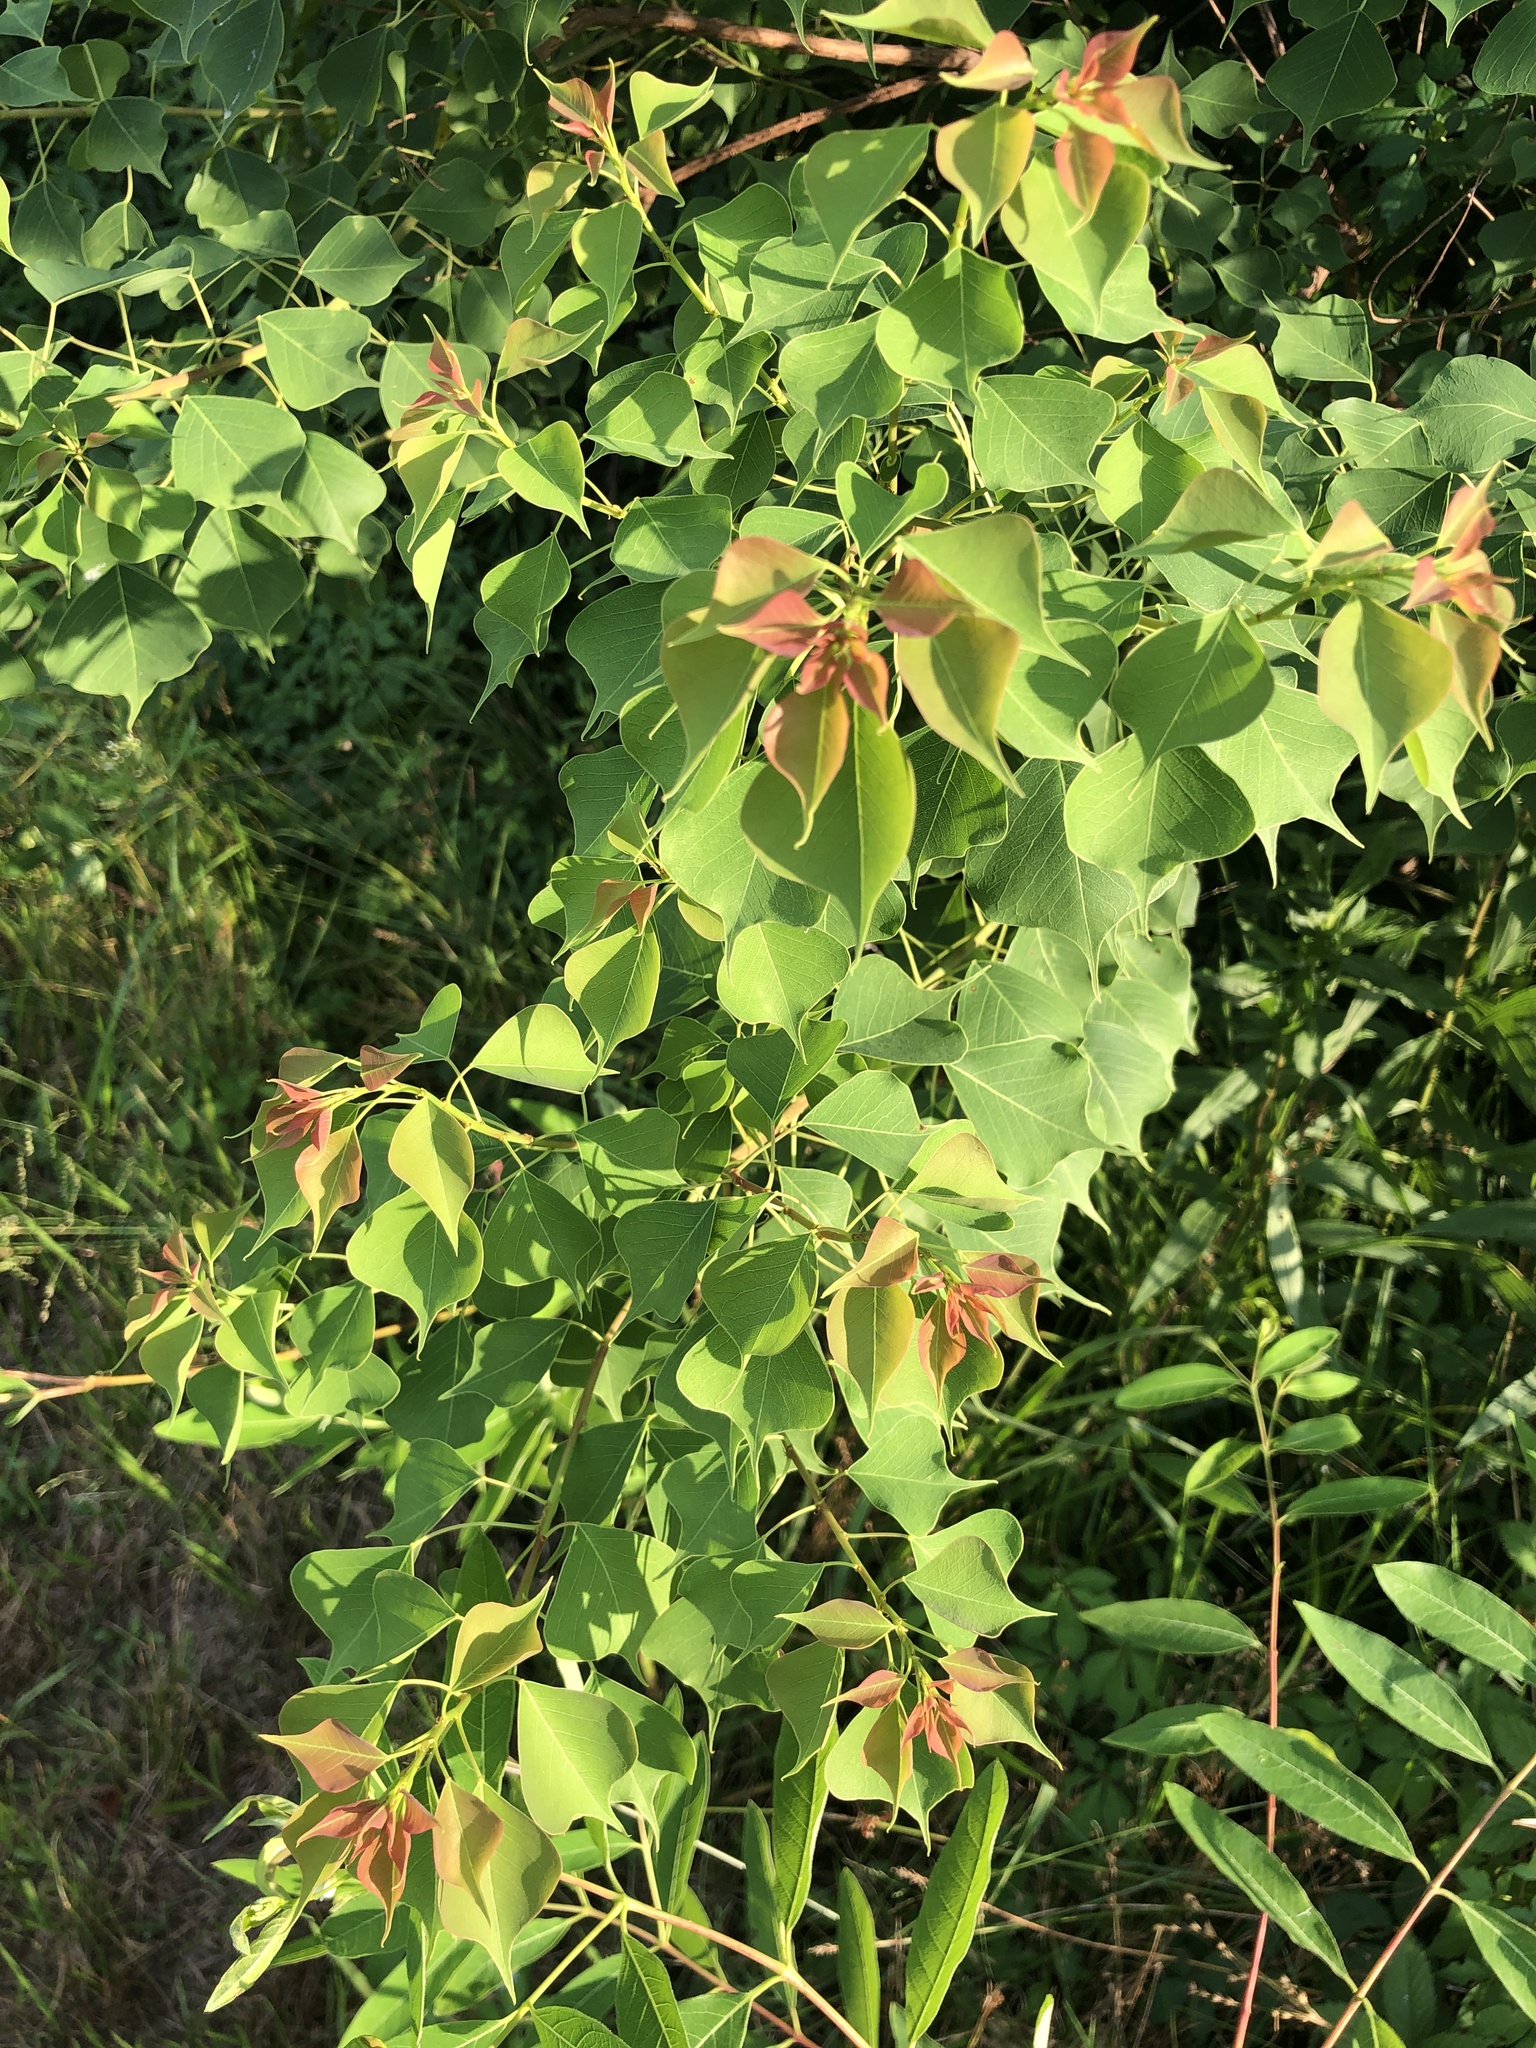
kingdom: Plantae
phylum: Tracheophyta
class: Magnoliopsida
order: Malpighiales
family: Euphorbiaceae
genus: Triadica
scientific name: Triadica sebifera
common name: Chinese tallow
